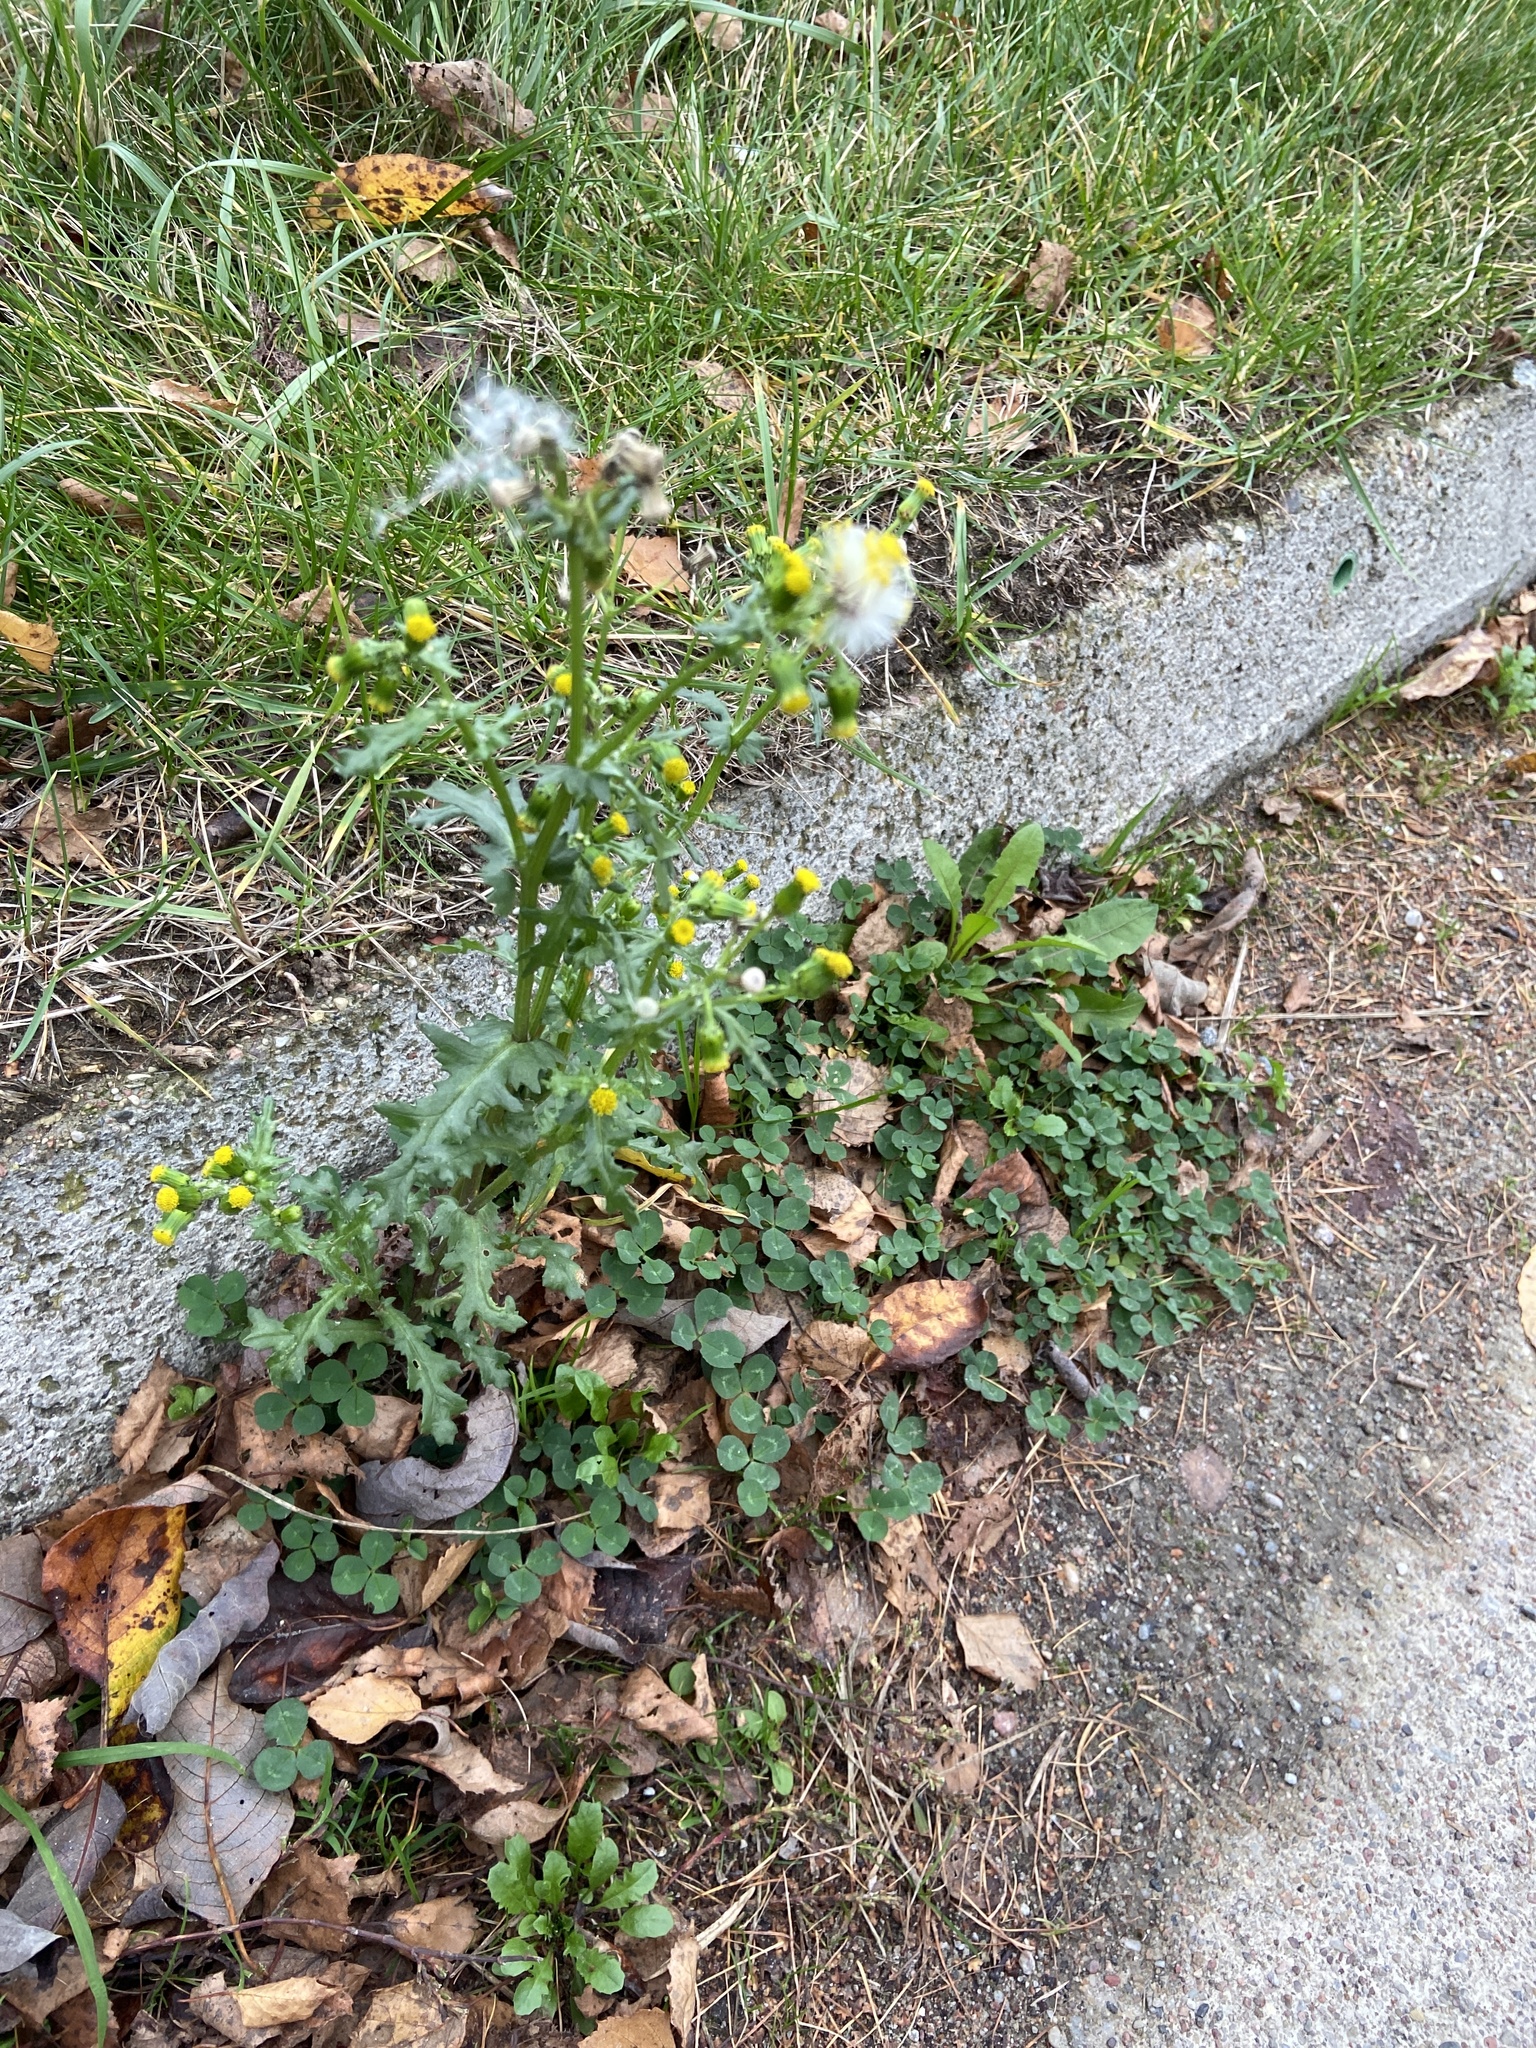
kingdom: Plantae
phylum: Tracheophyta
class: Magnoliopsida
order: Asterales
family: Asteraceae
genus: Senecio
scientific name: Senecio vulgaris
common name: Old-man-in-the-spring
